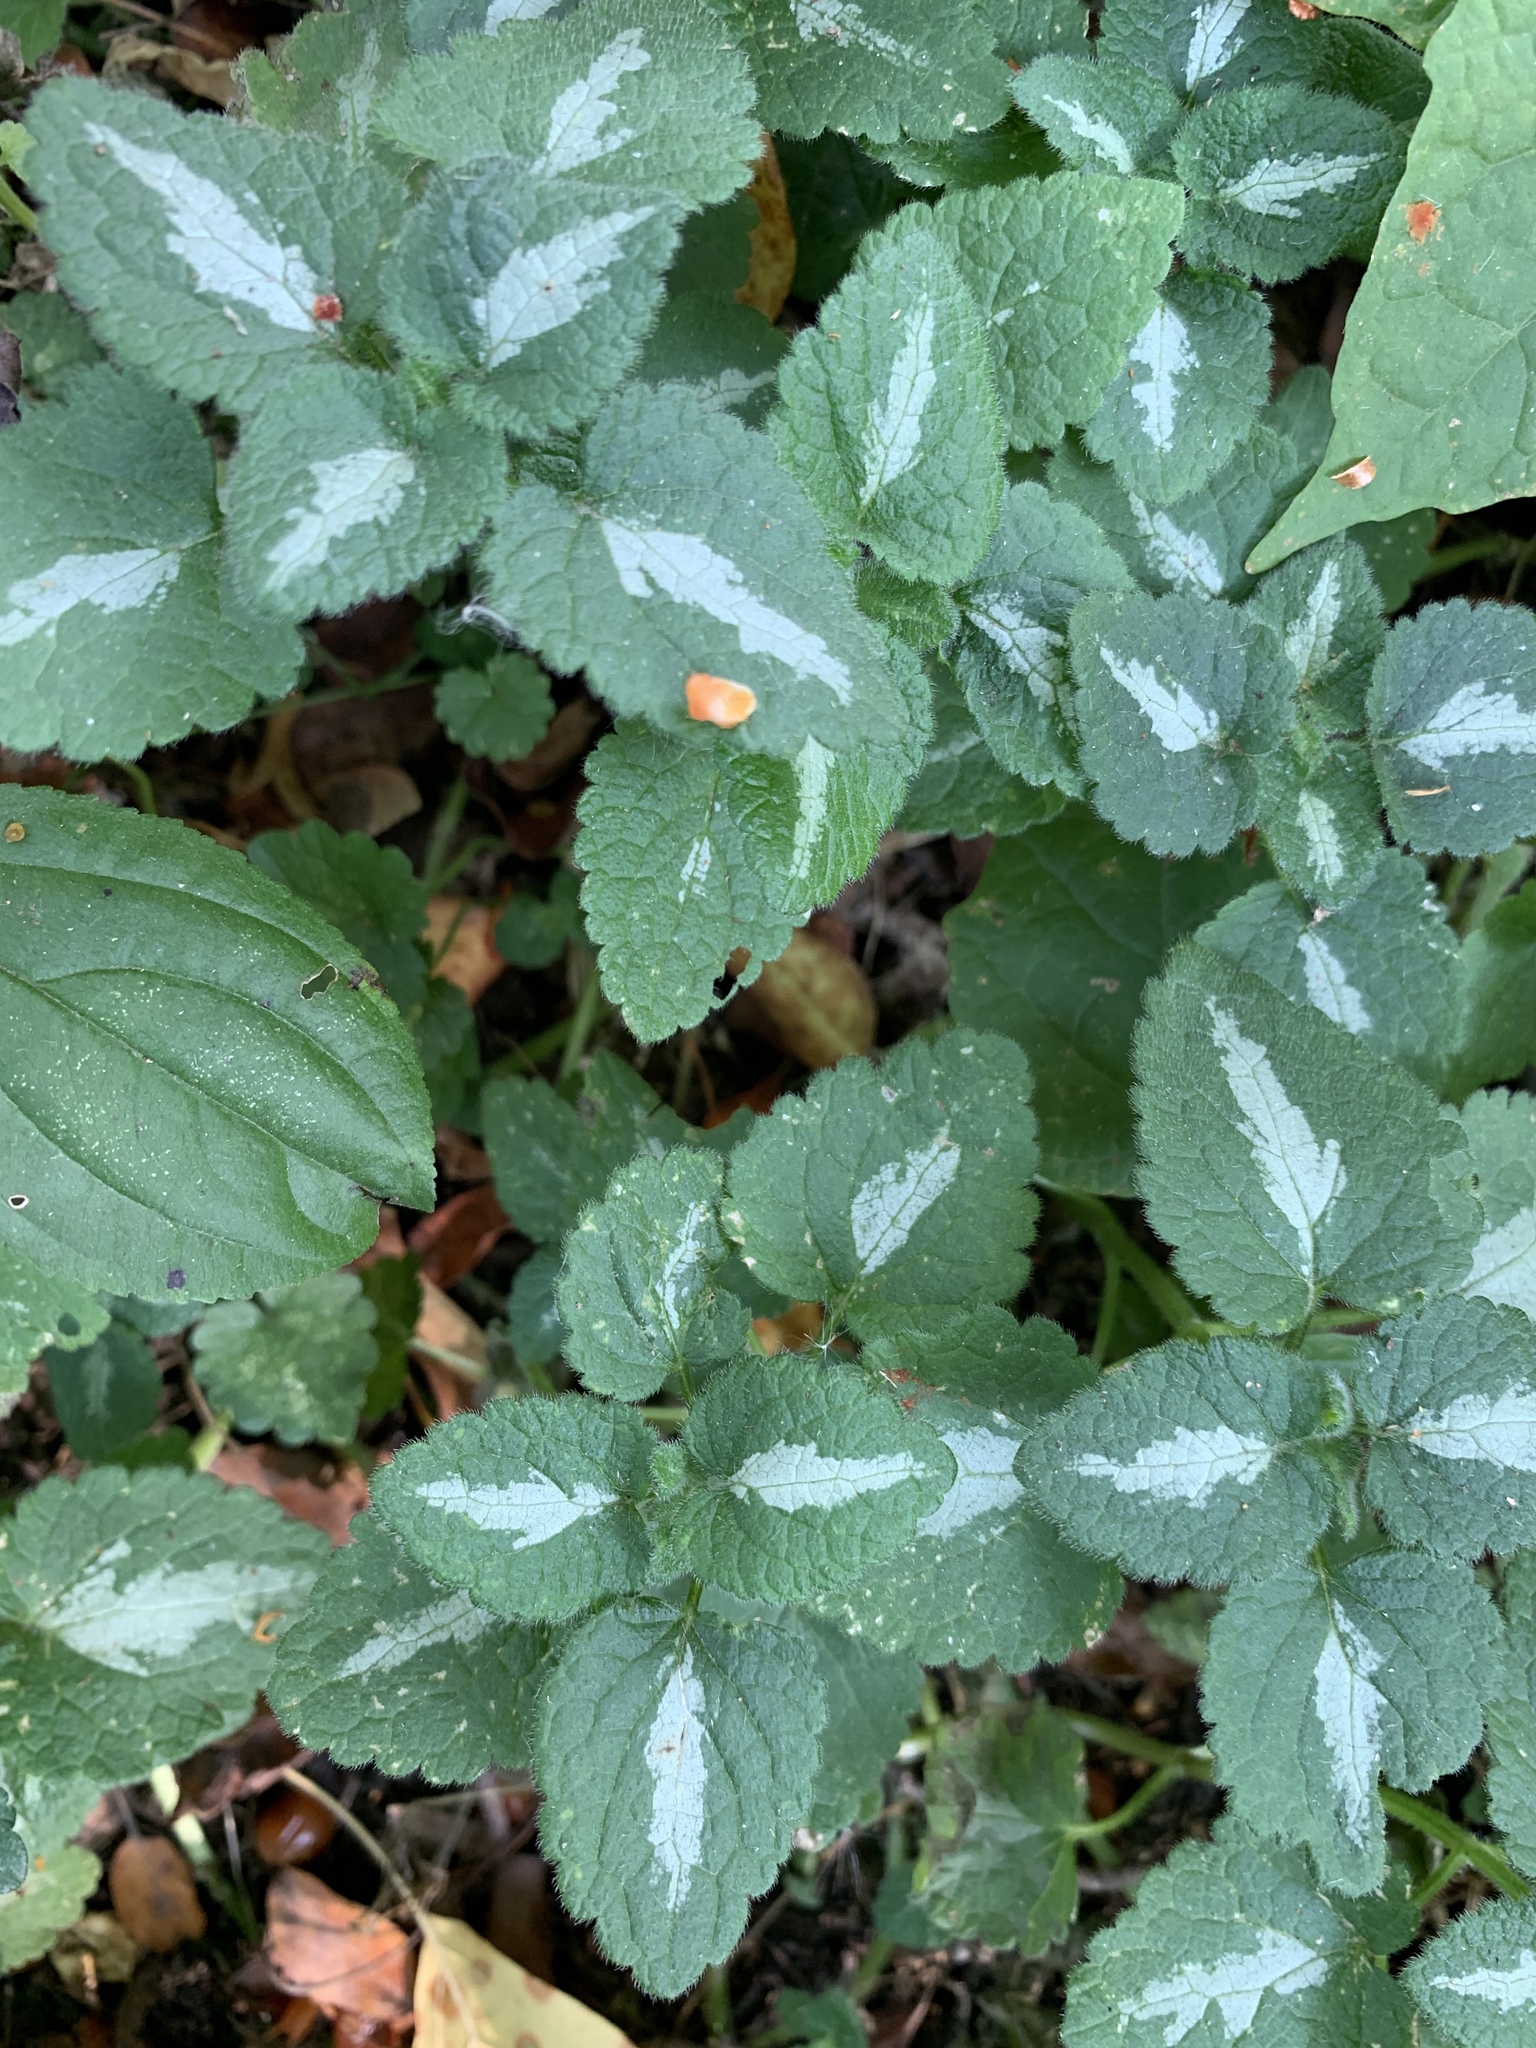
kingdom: Plantae
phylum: Tracheophyta
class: Magnoliopsida
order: Lamiales
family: Lamiaceae
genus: Lamium
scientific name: Lamium maculatum
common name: Spotted dead-nettle
